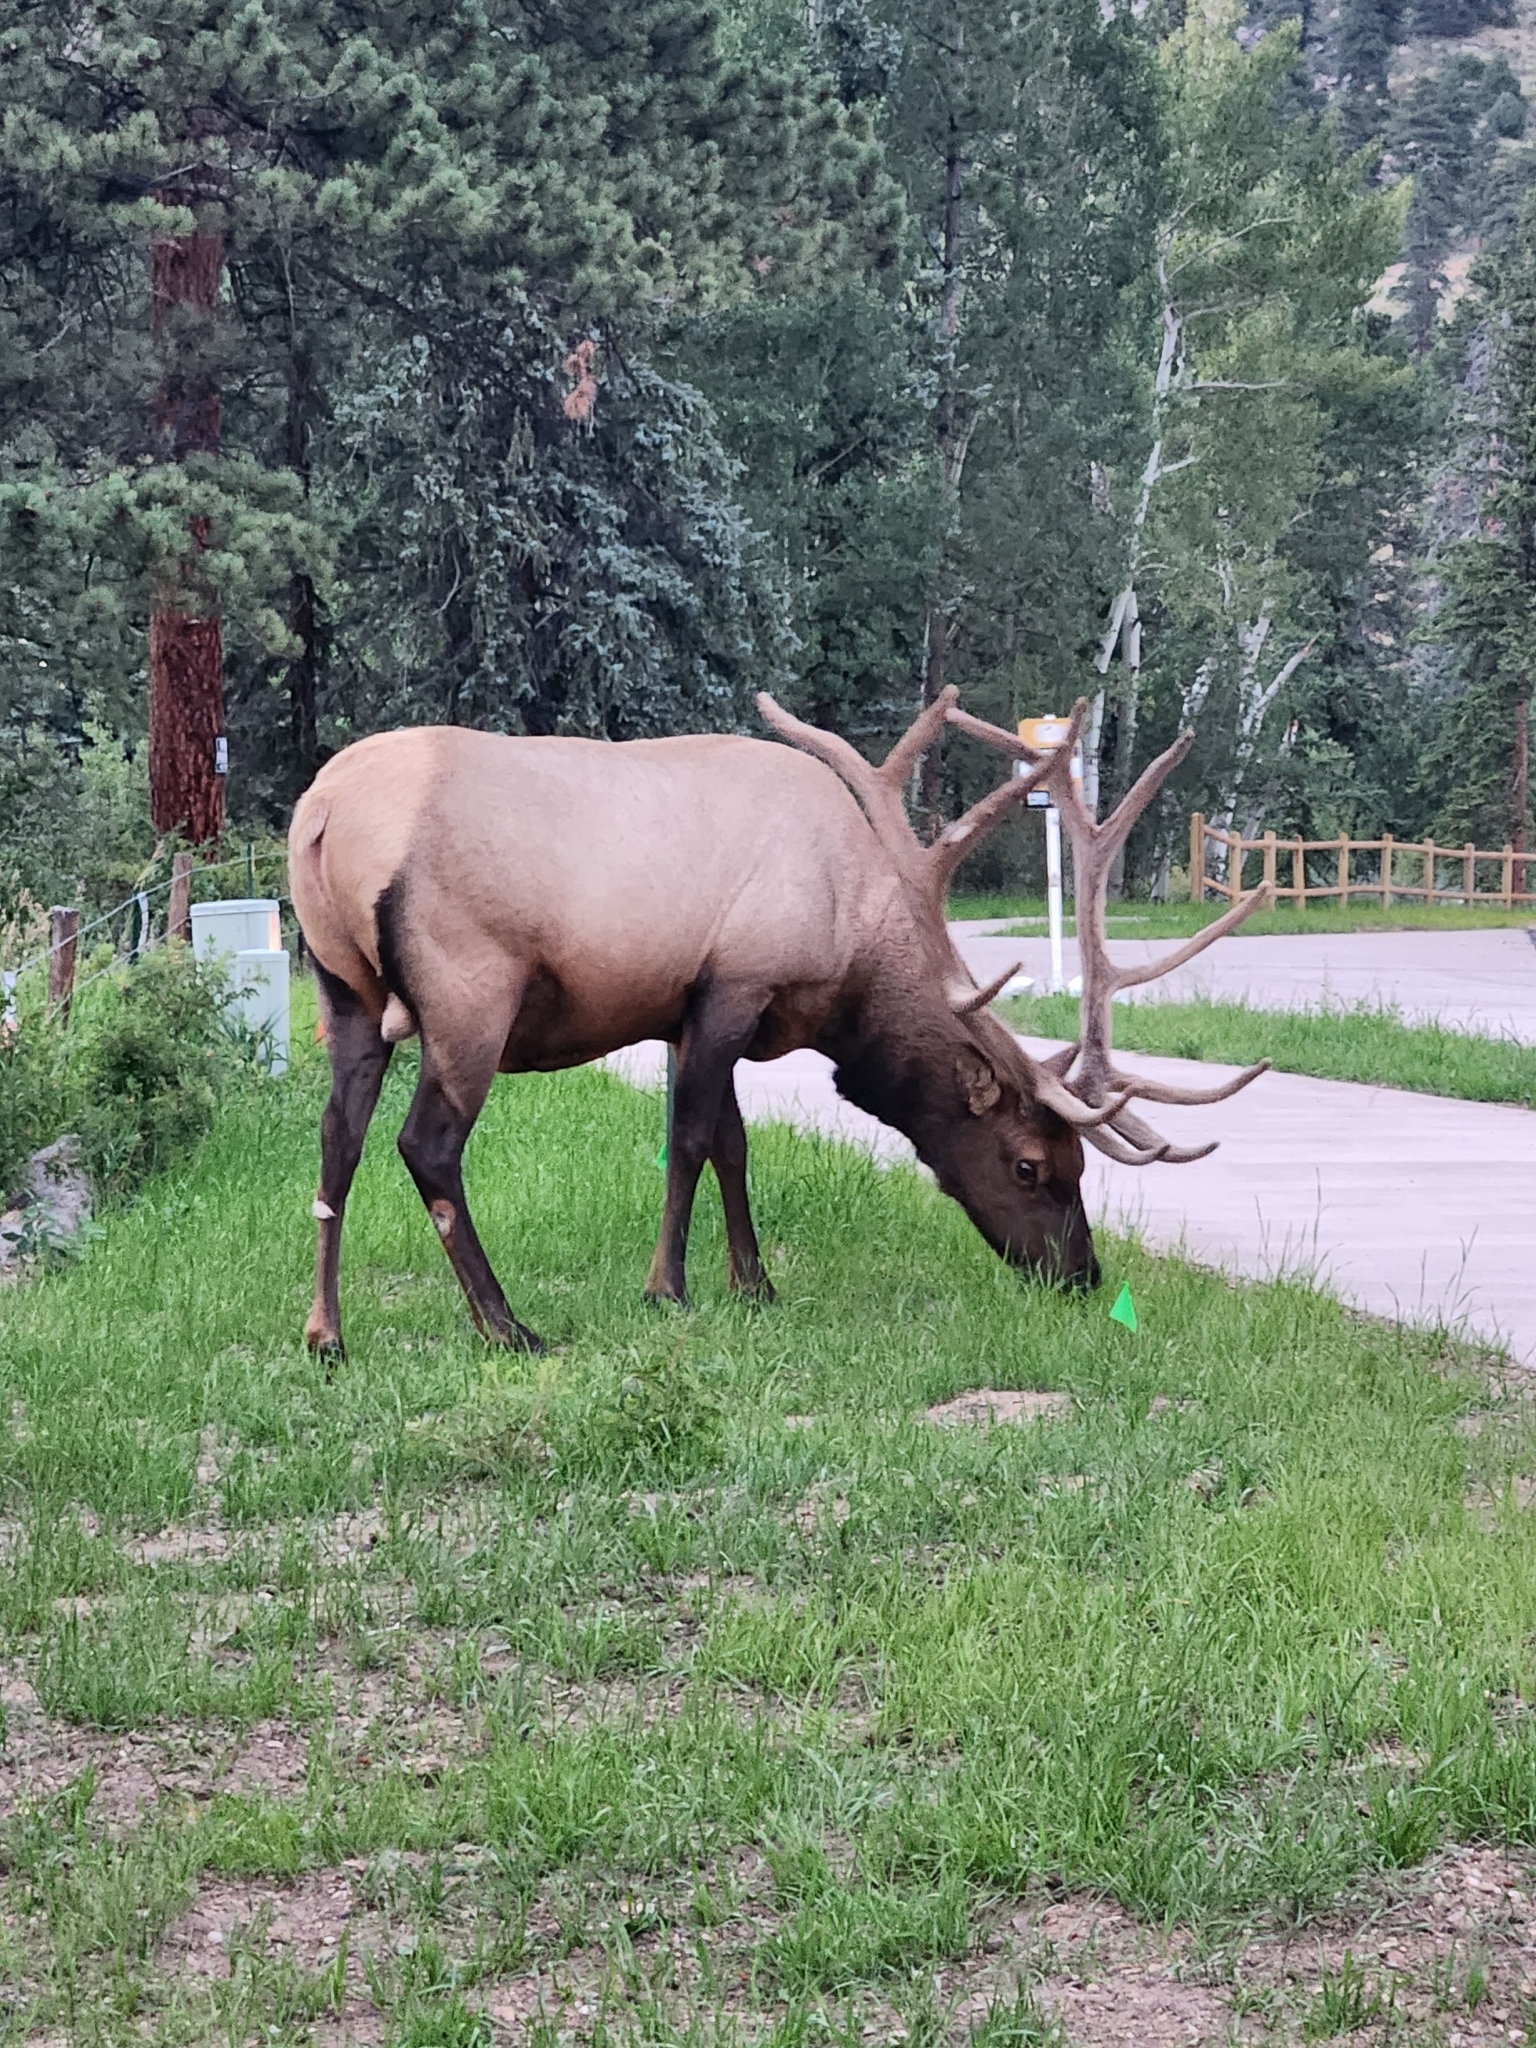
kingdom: Animalia
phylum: Chordata
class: Mammalia
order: Artiodactyla
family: Cervidae
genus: Cervus
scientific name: Cervus elaphus
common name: Red deer
